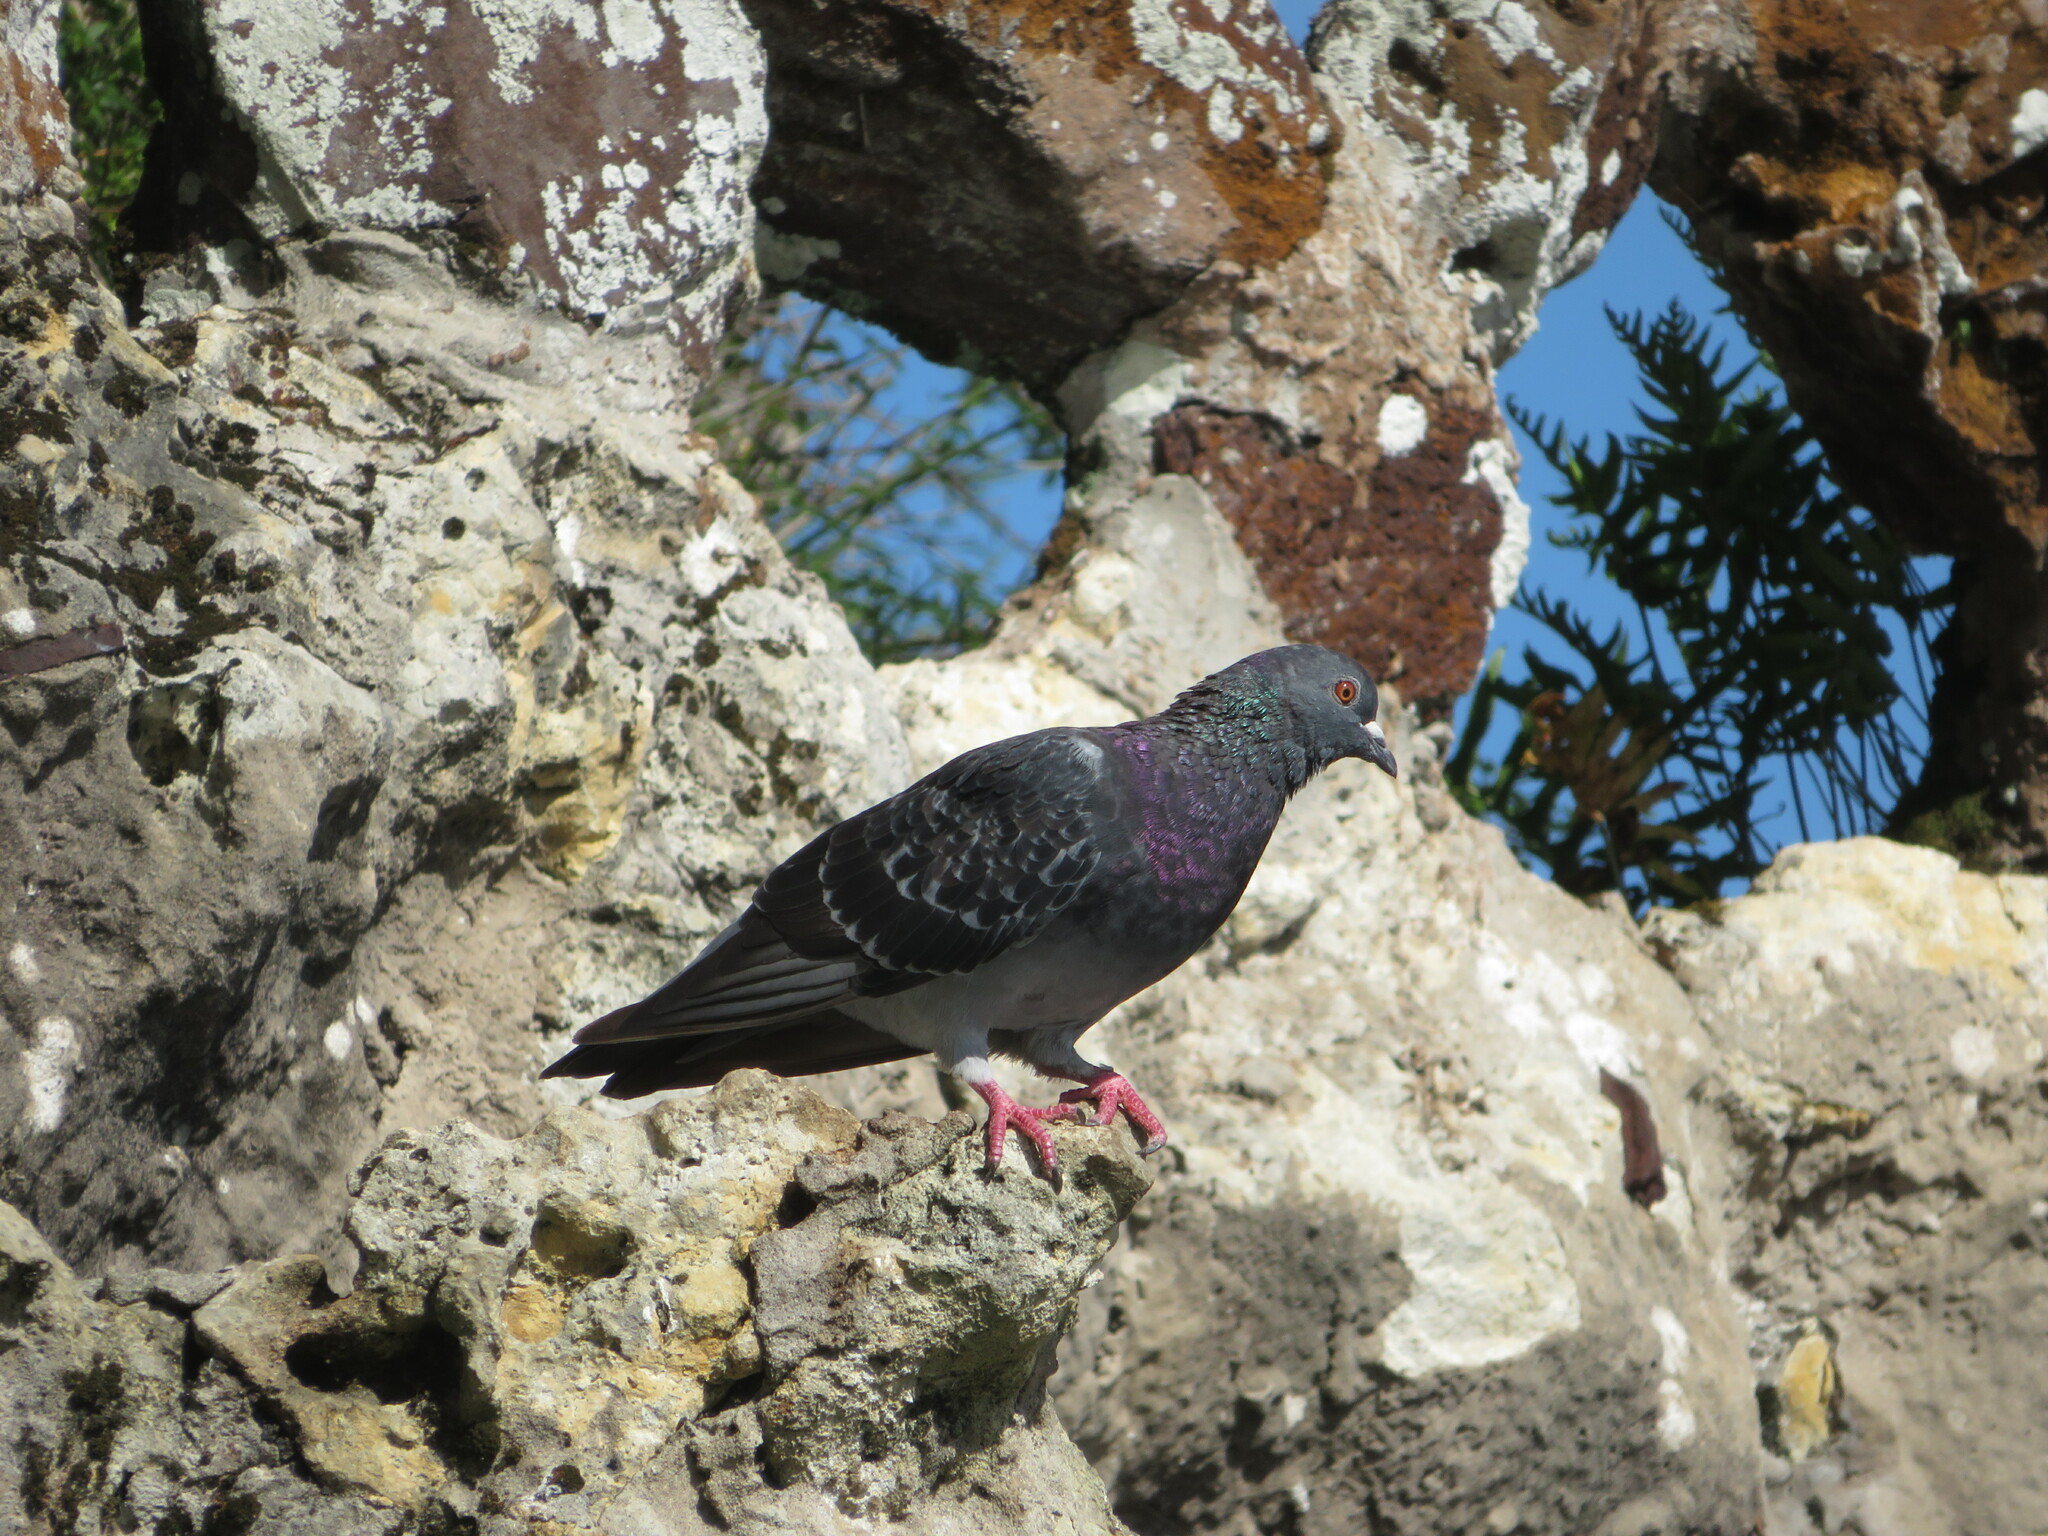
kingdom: Animalia
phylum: Chordata
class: Aves
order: Columbiformes
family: Columbidae
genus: Columba
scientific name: Columba livia
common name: Rock pigeon
